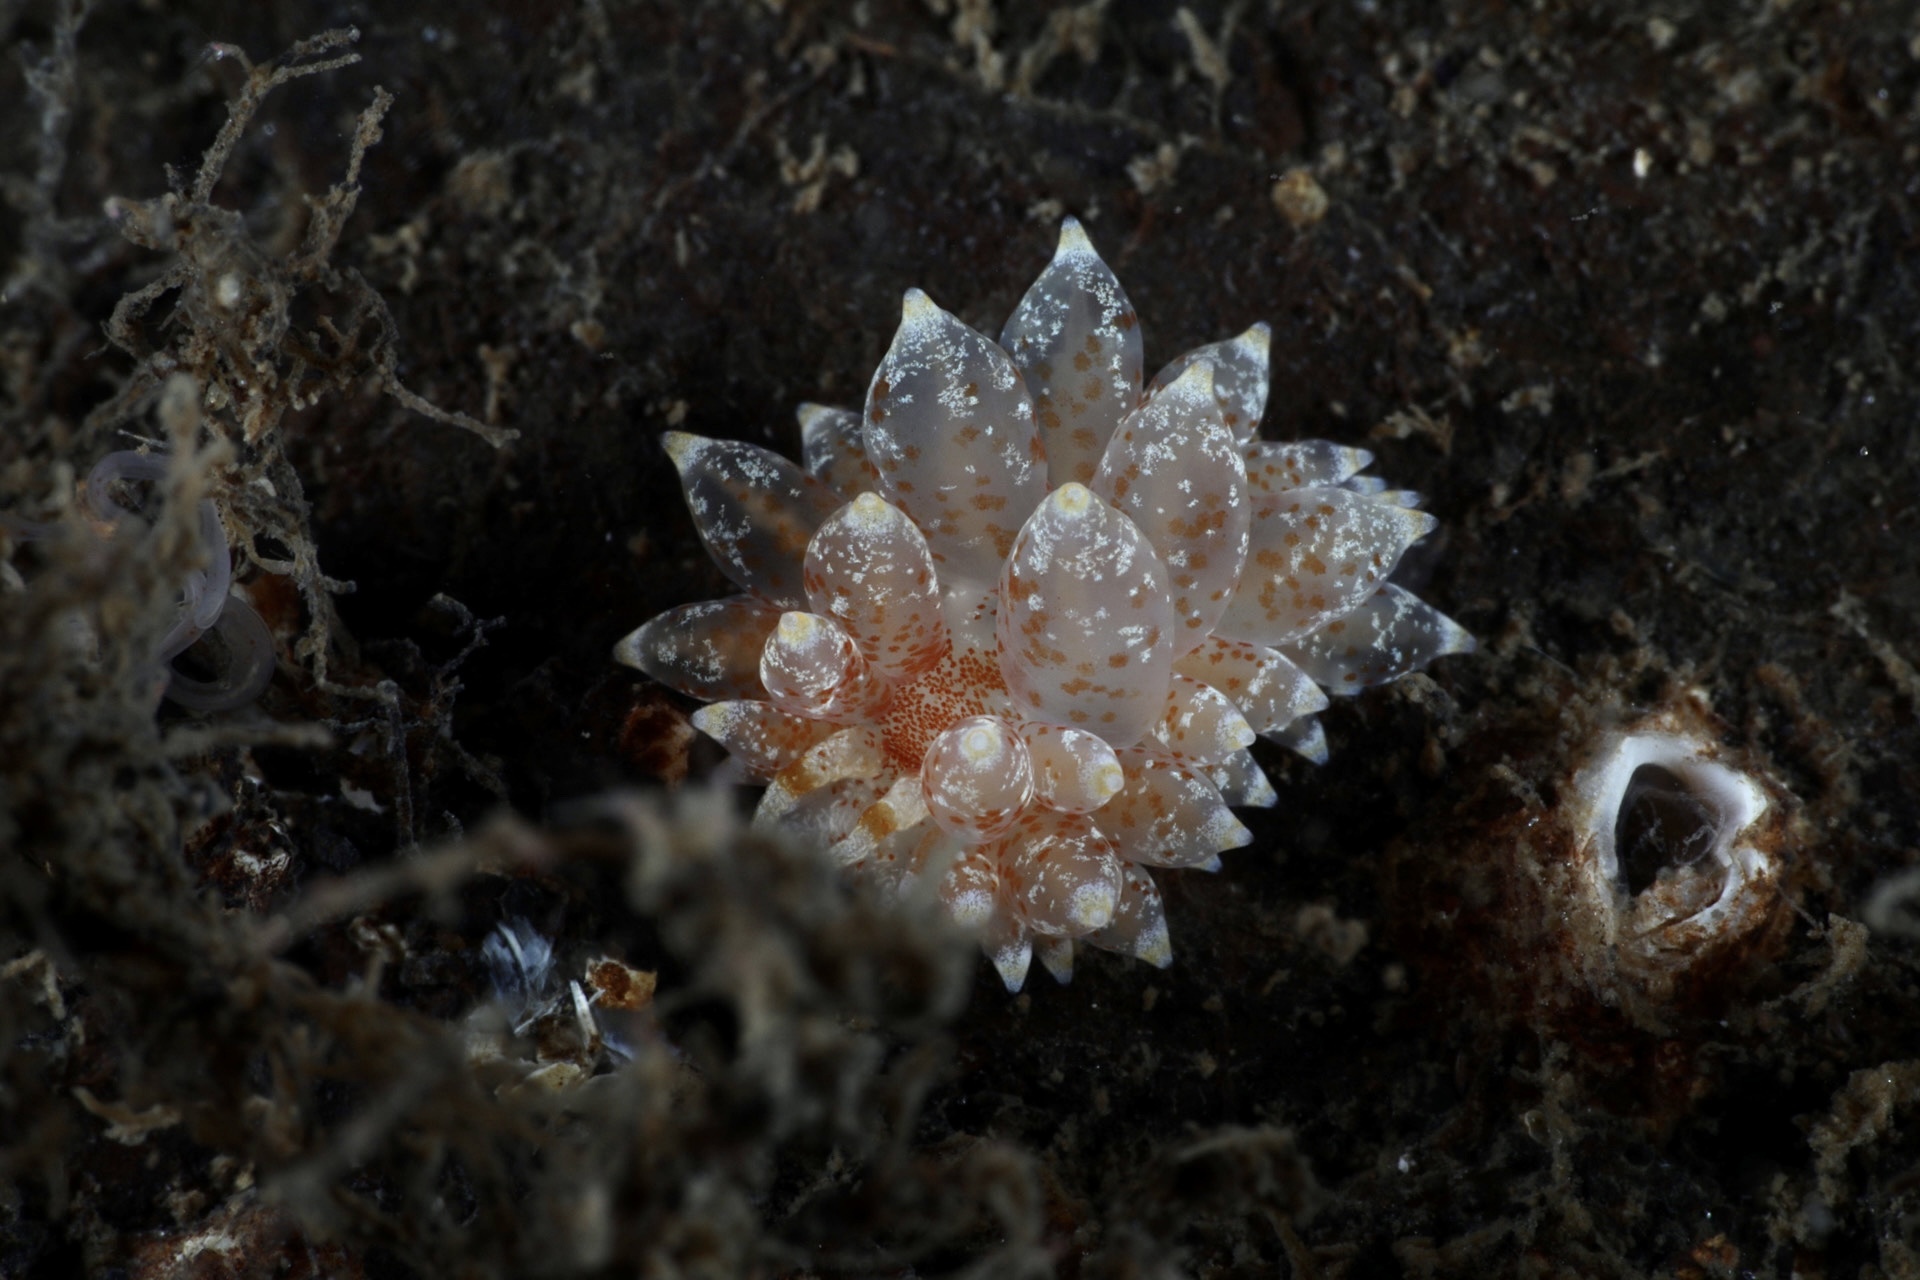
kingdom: Animalia
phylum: Mollusca
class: Gastropoda
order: Nudibranchia
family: Eubranchidae
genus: Amphorina
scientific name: Amphorina pallida
